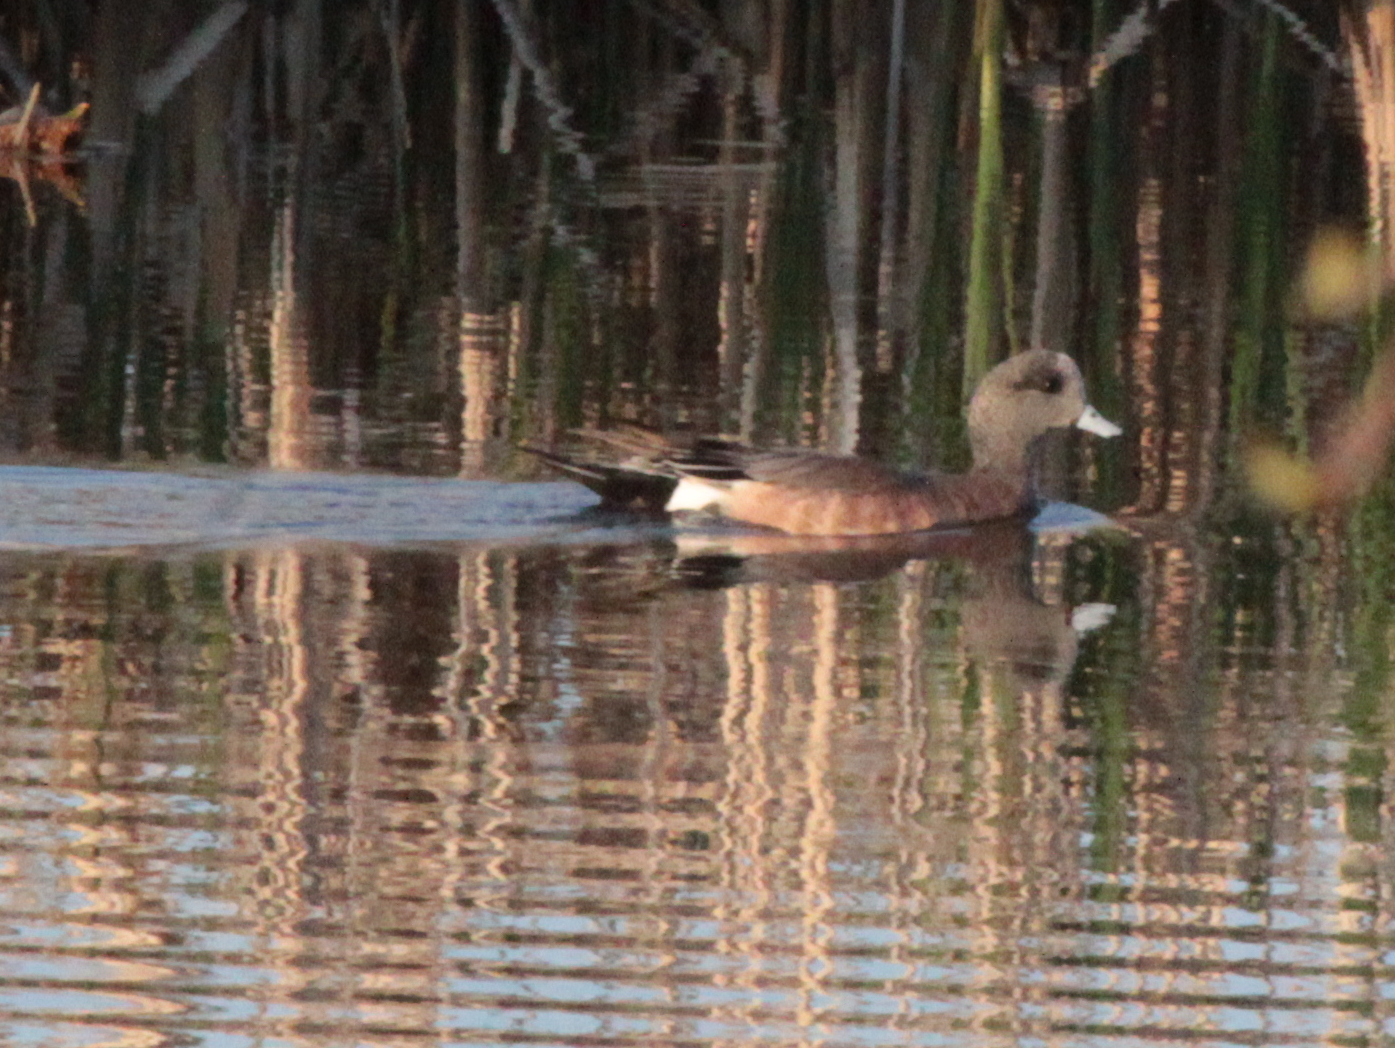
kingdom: Animalia
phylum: Chordata
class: Aves
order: Anseriformes
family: Anatidae
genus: Mareca
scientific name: Mareca americana
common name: American wigeon
